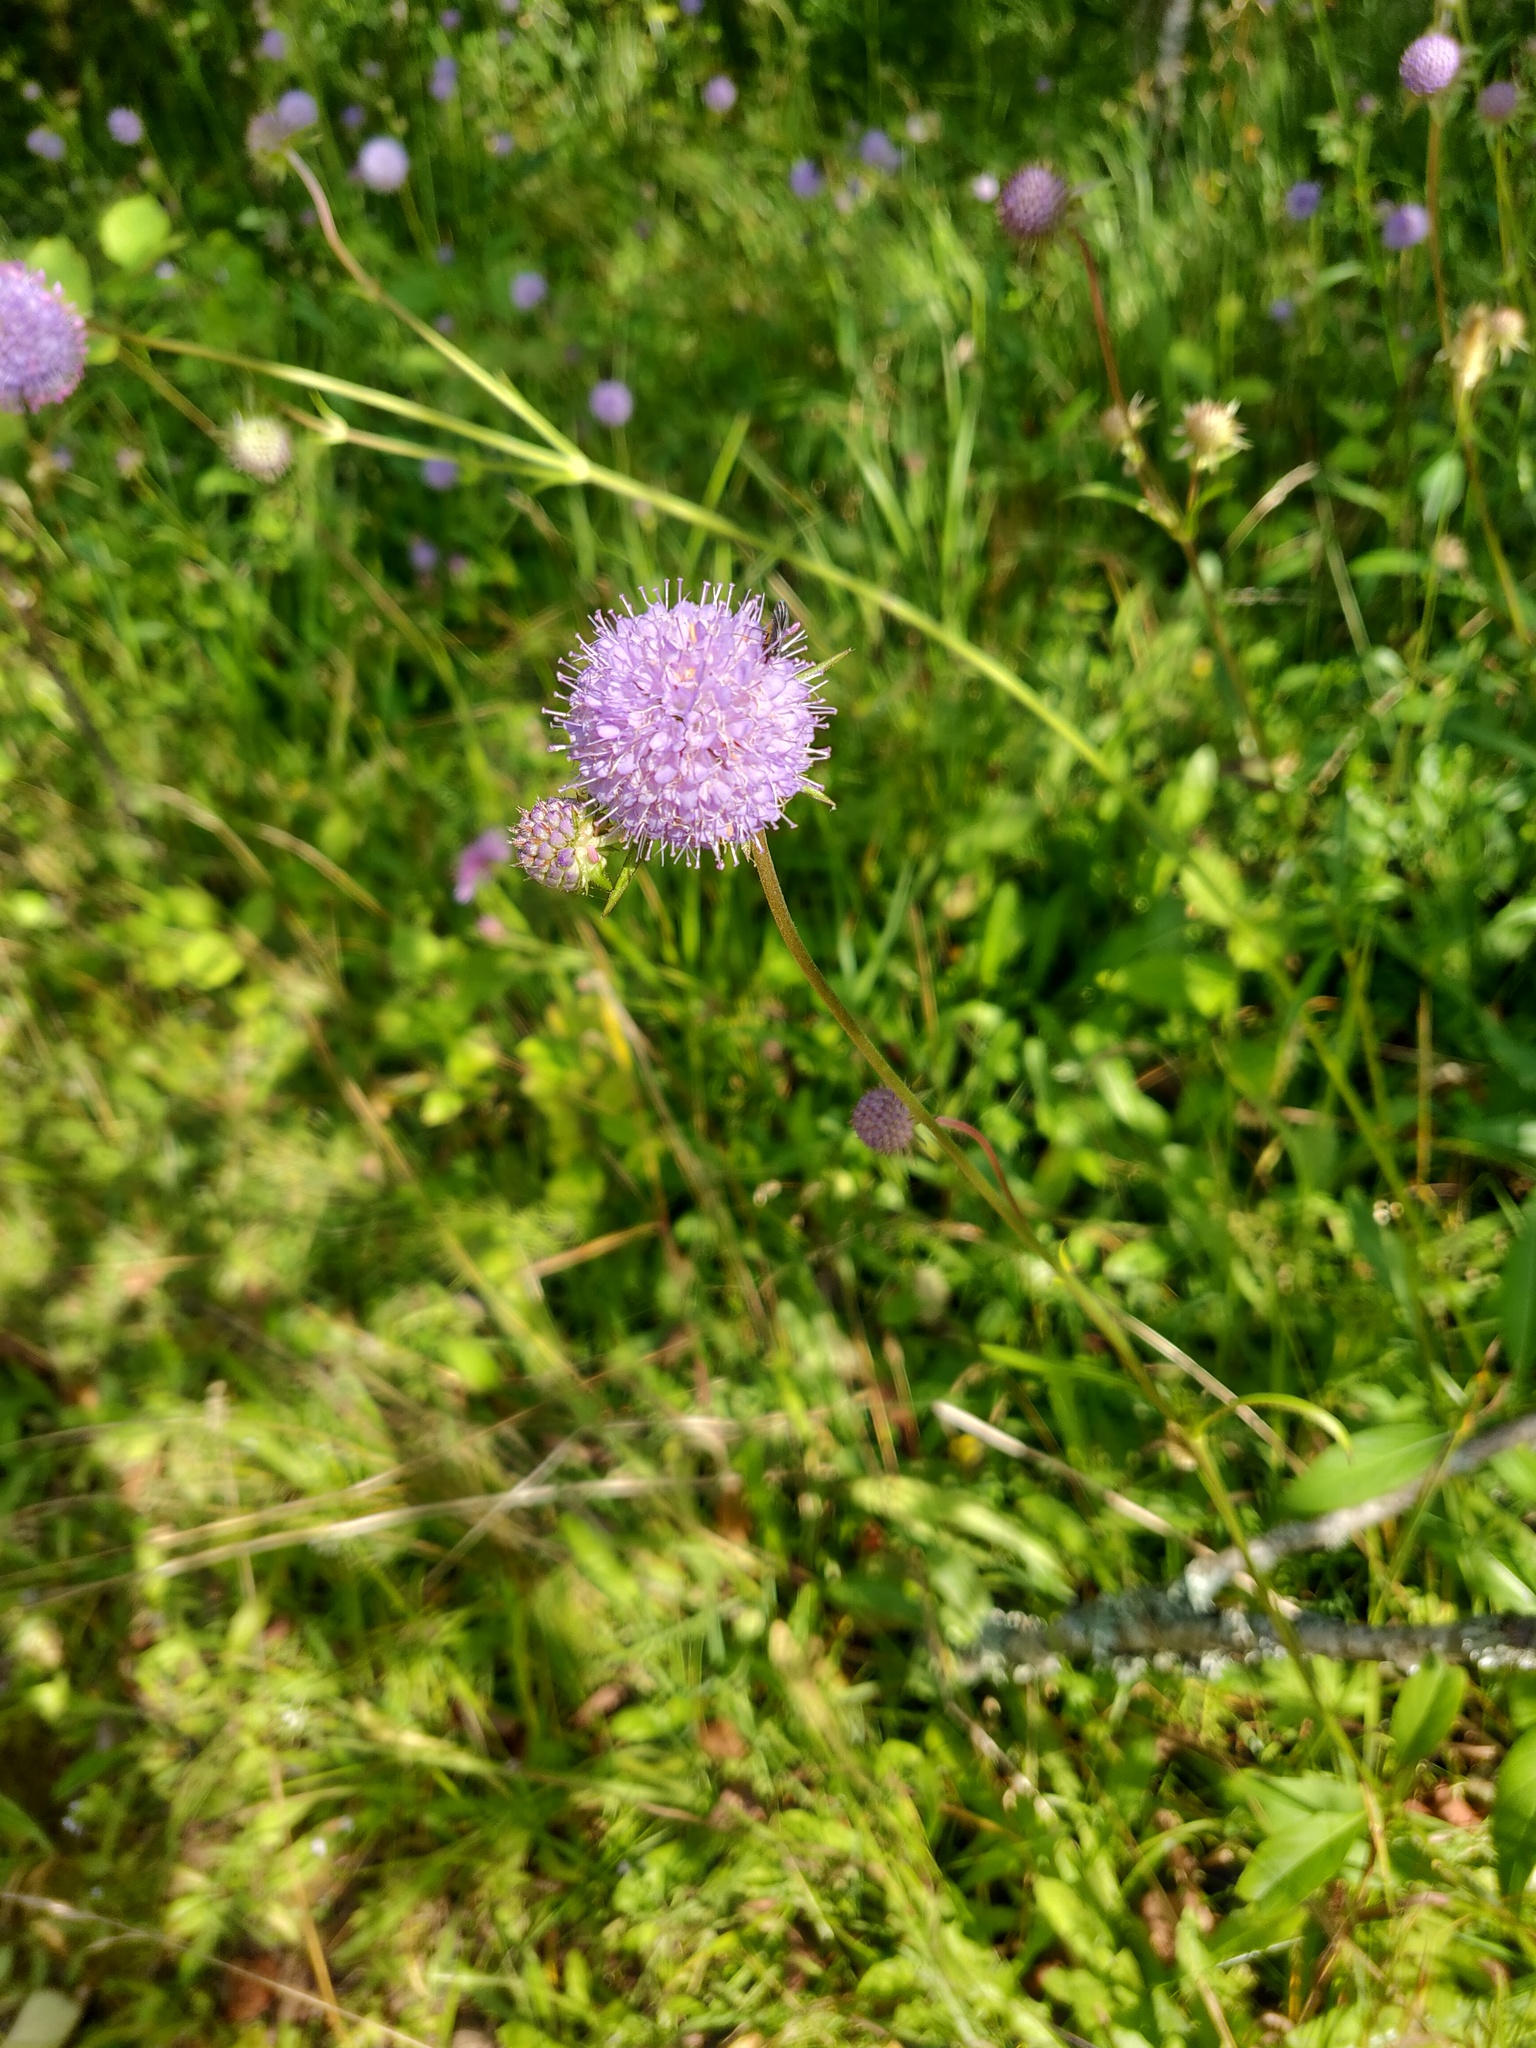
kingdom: Plantae
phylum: Tracheophyta
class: Magnoliopsida
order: Dipsacales
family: Caprifoliaceae
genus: Succisa
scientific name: Succisa pratensis
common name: Devil's-bit
